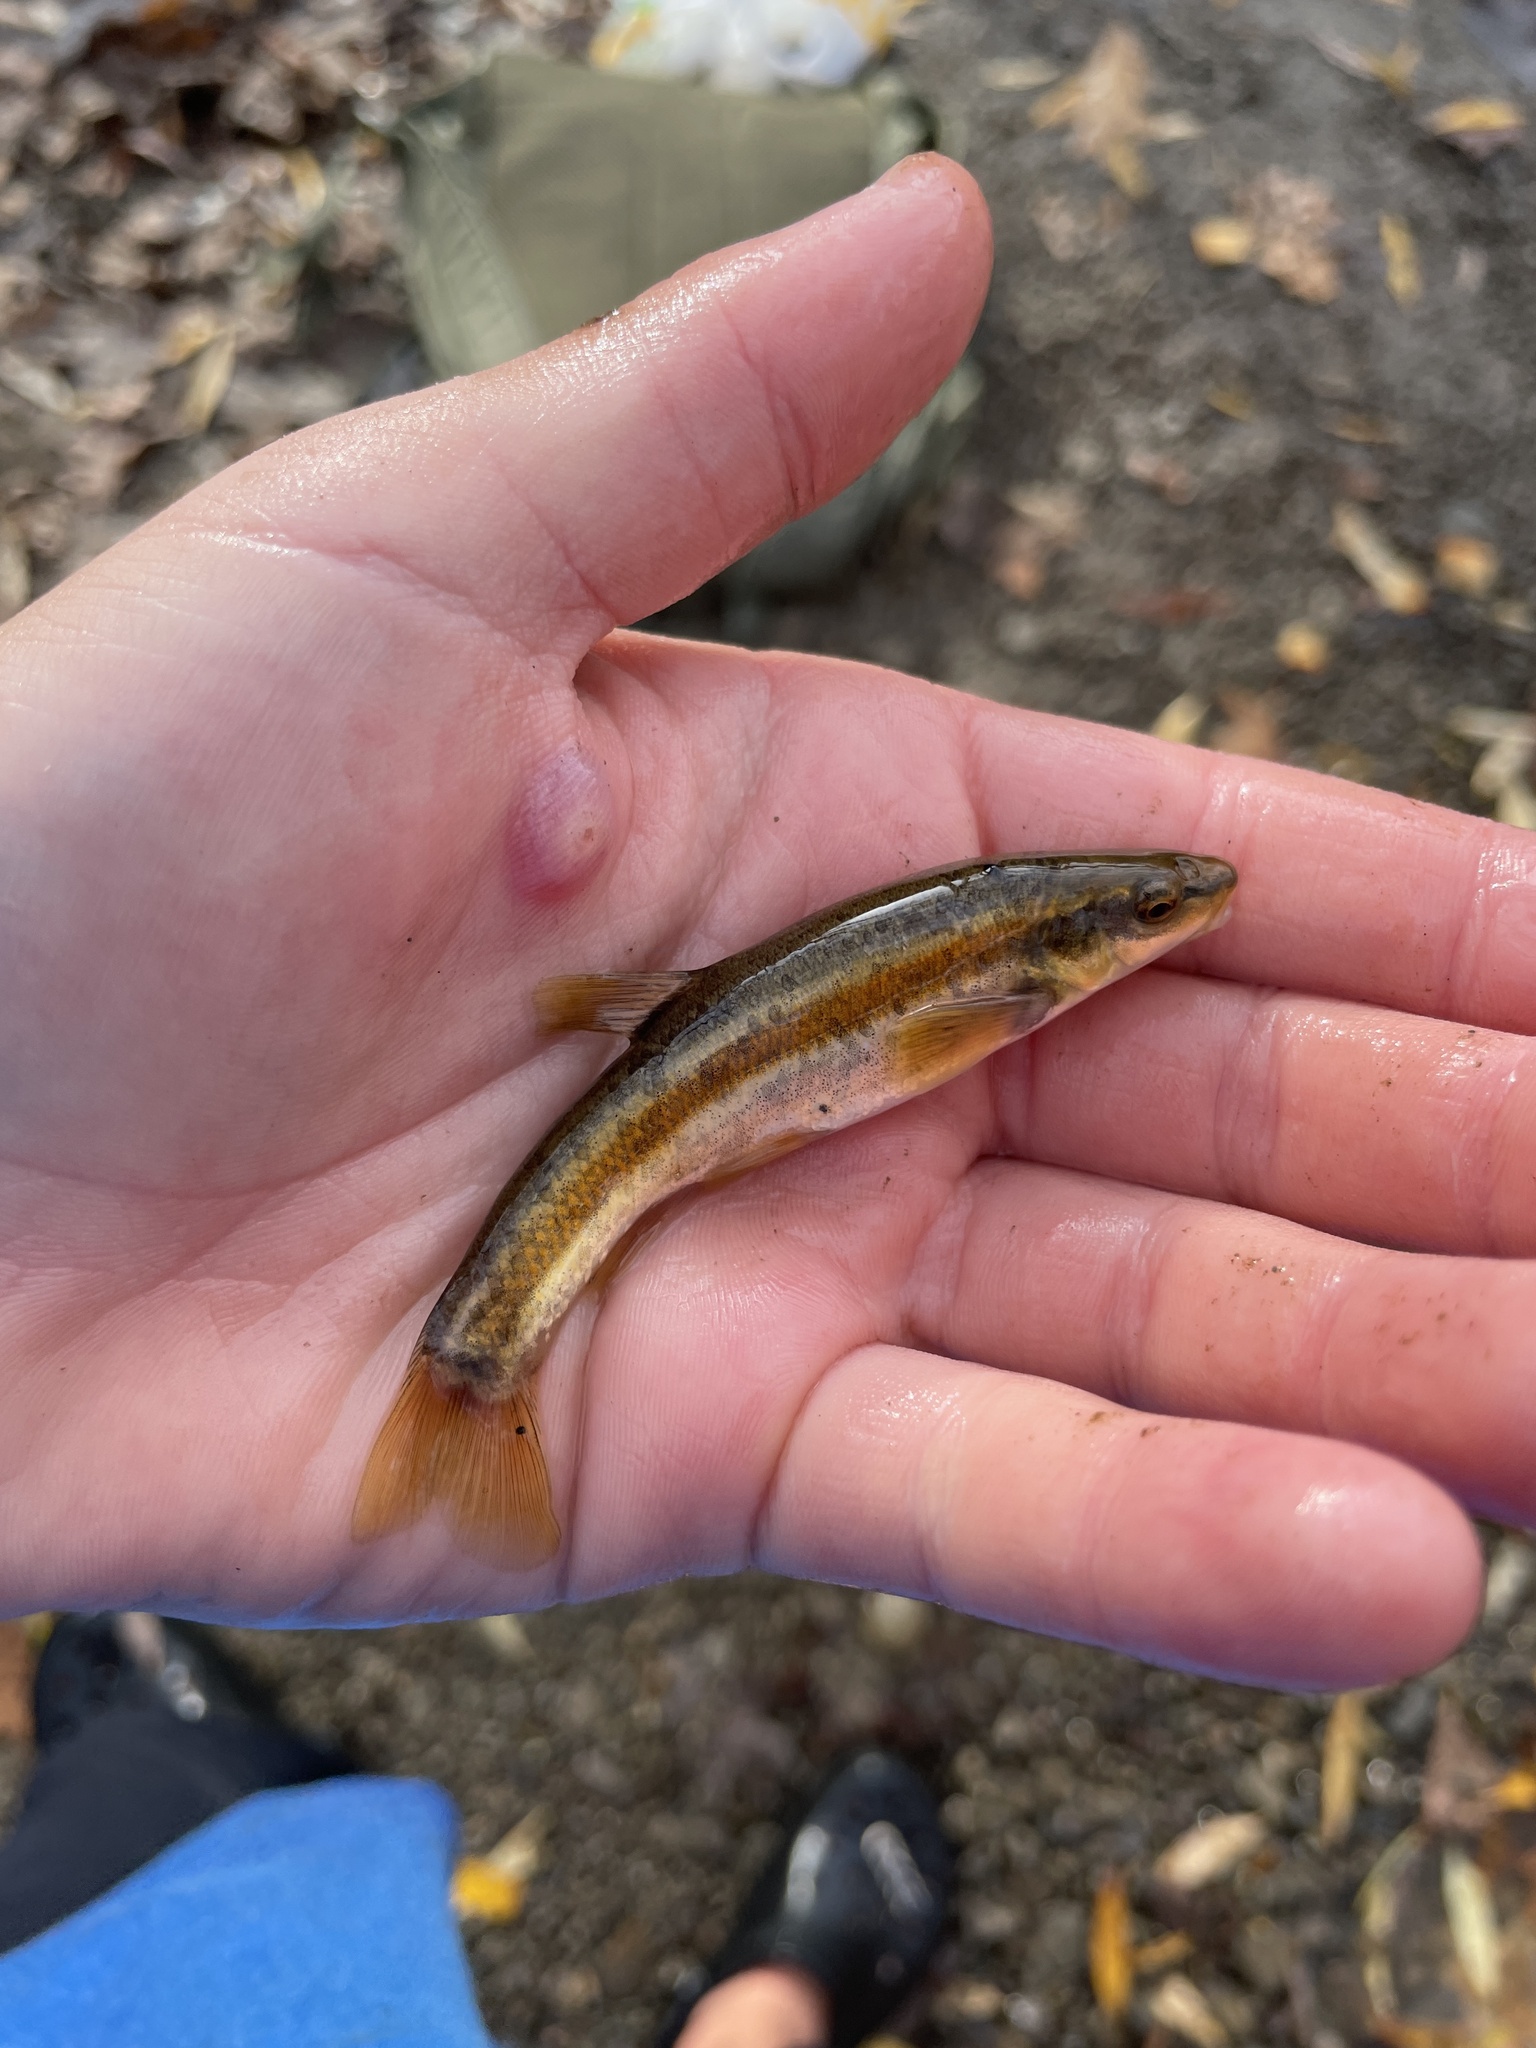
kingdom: Animalia
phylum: Chordata
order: Cypriniformes
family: Cyprinidae
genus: Rhinichthys
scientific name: Rhinichthys obtusus
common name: Western blacknose dace
